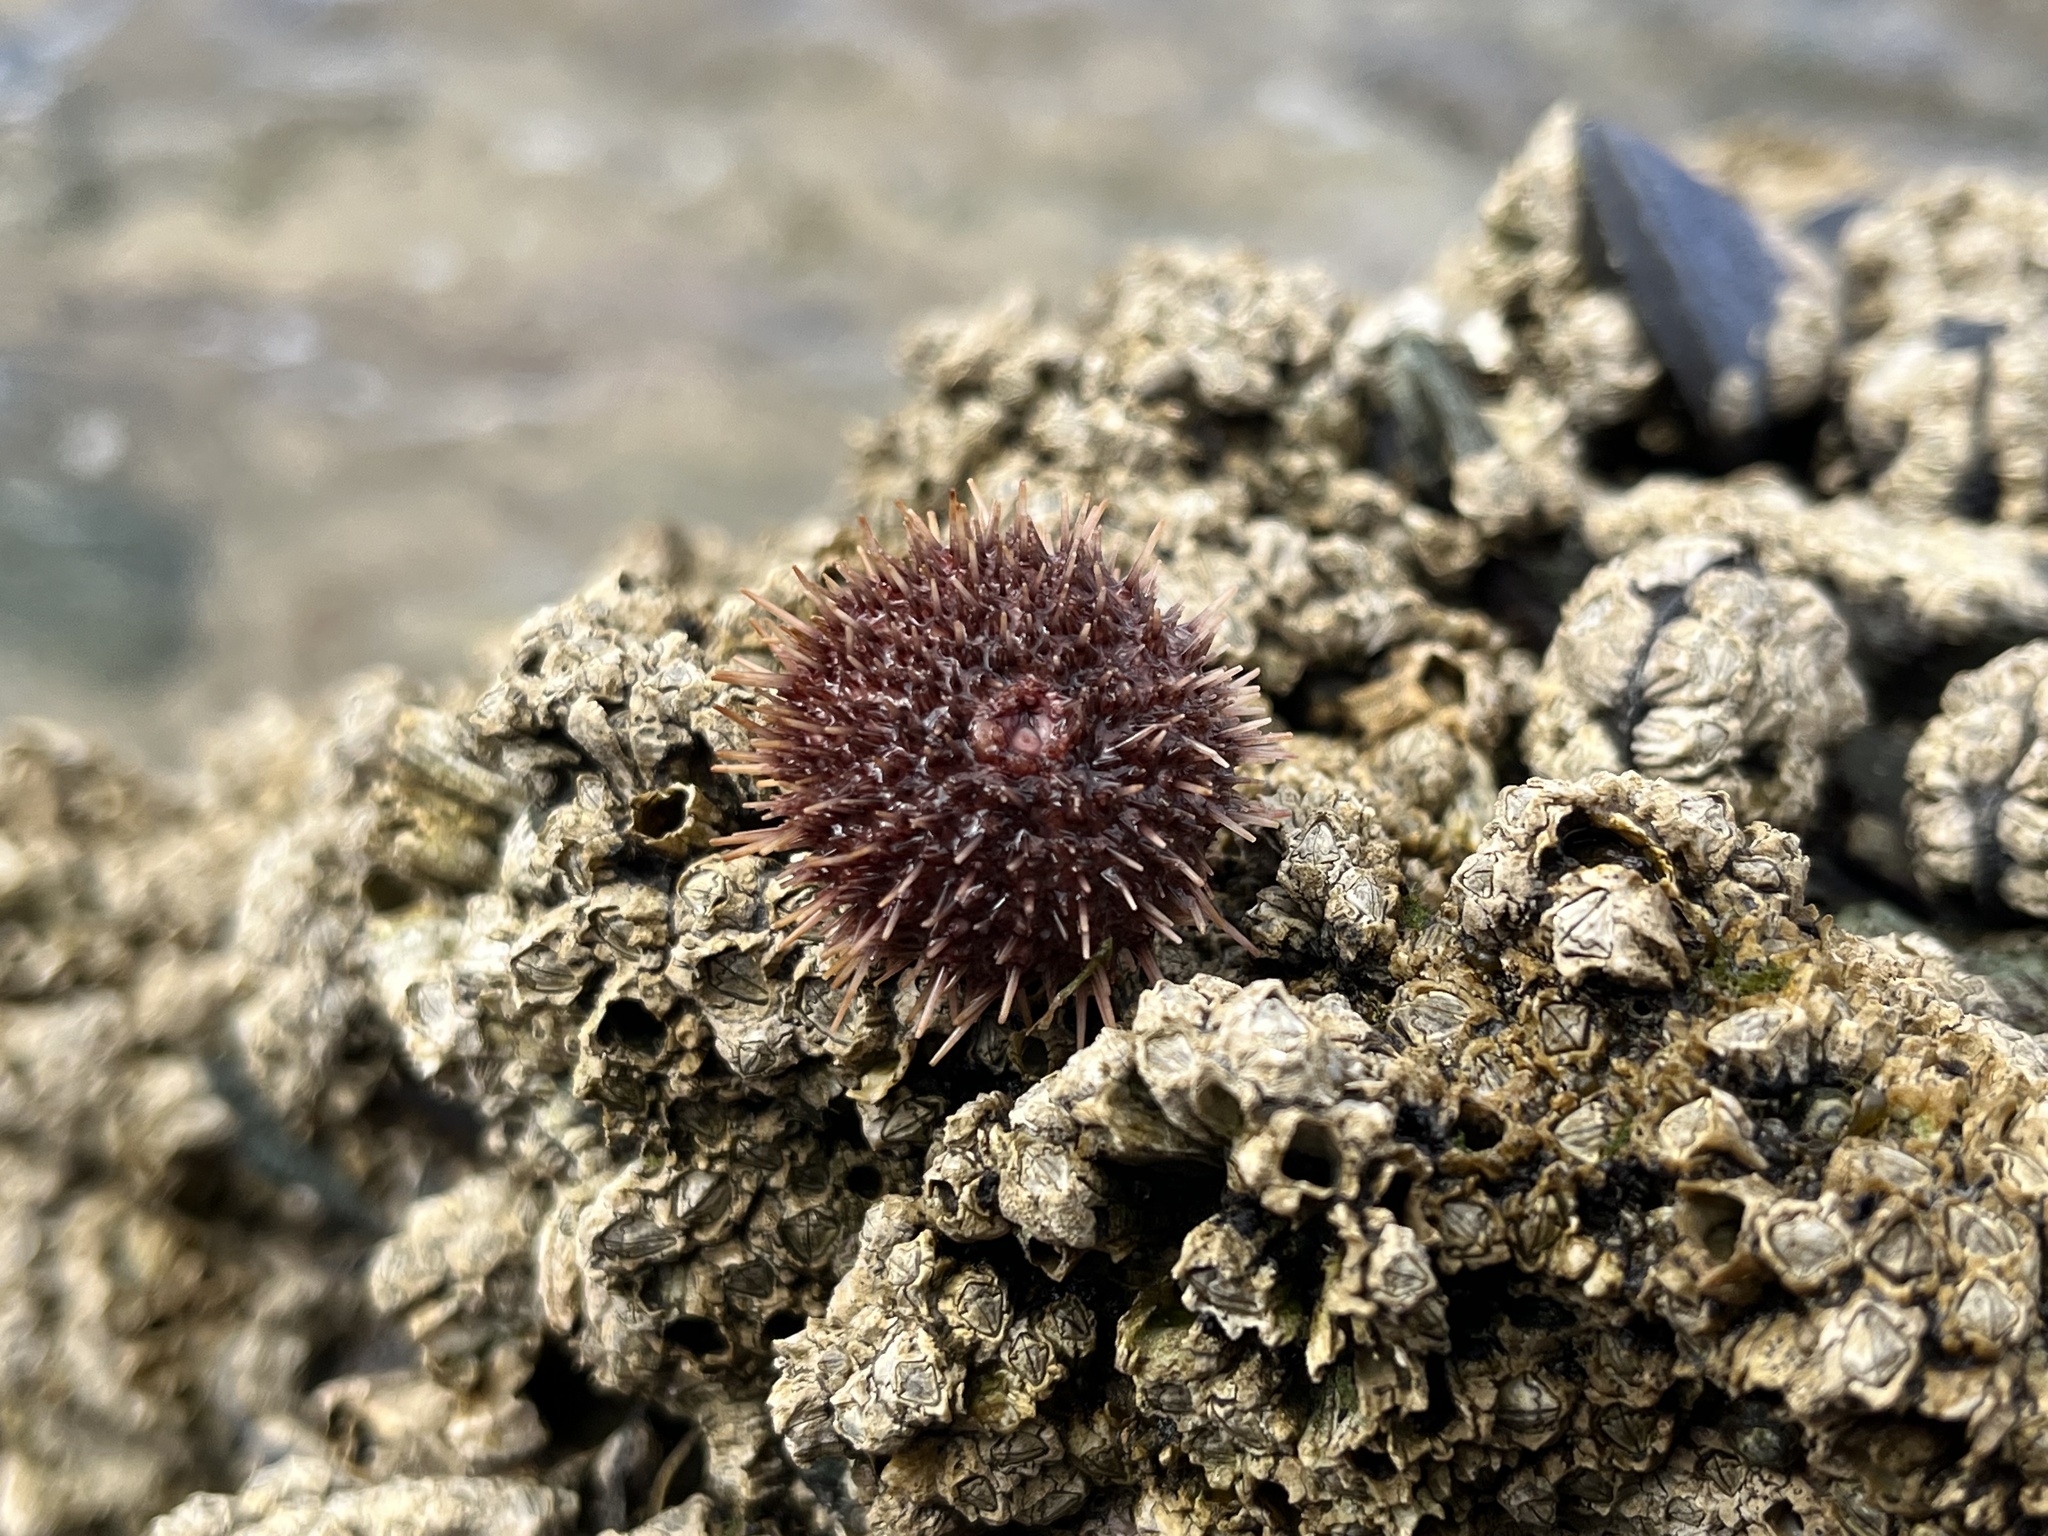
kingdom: Animalia
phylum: Echinodermata
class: Echinoidea
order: Camarodonta
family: Temnopleuridae
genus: Pseudechinus
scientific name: Pseudechinus magellanicus
